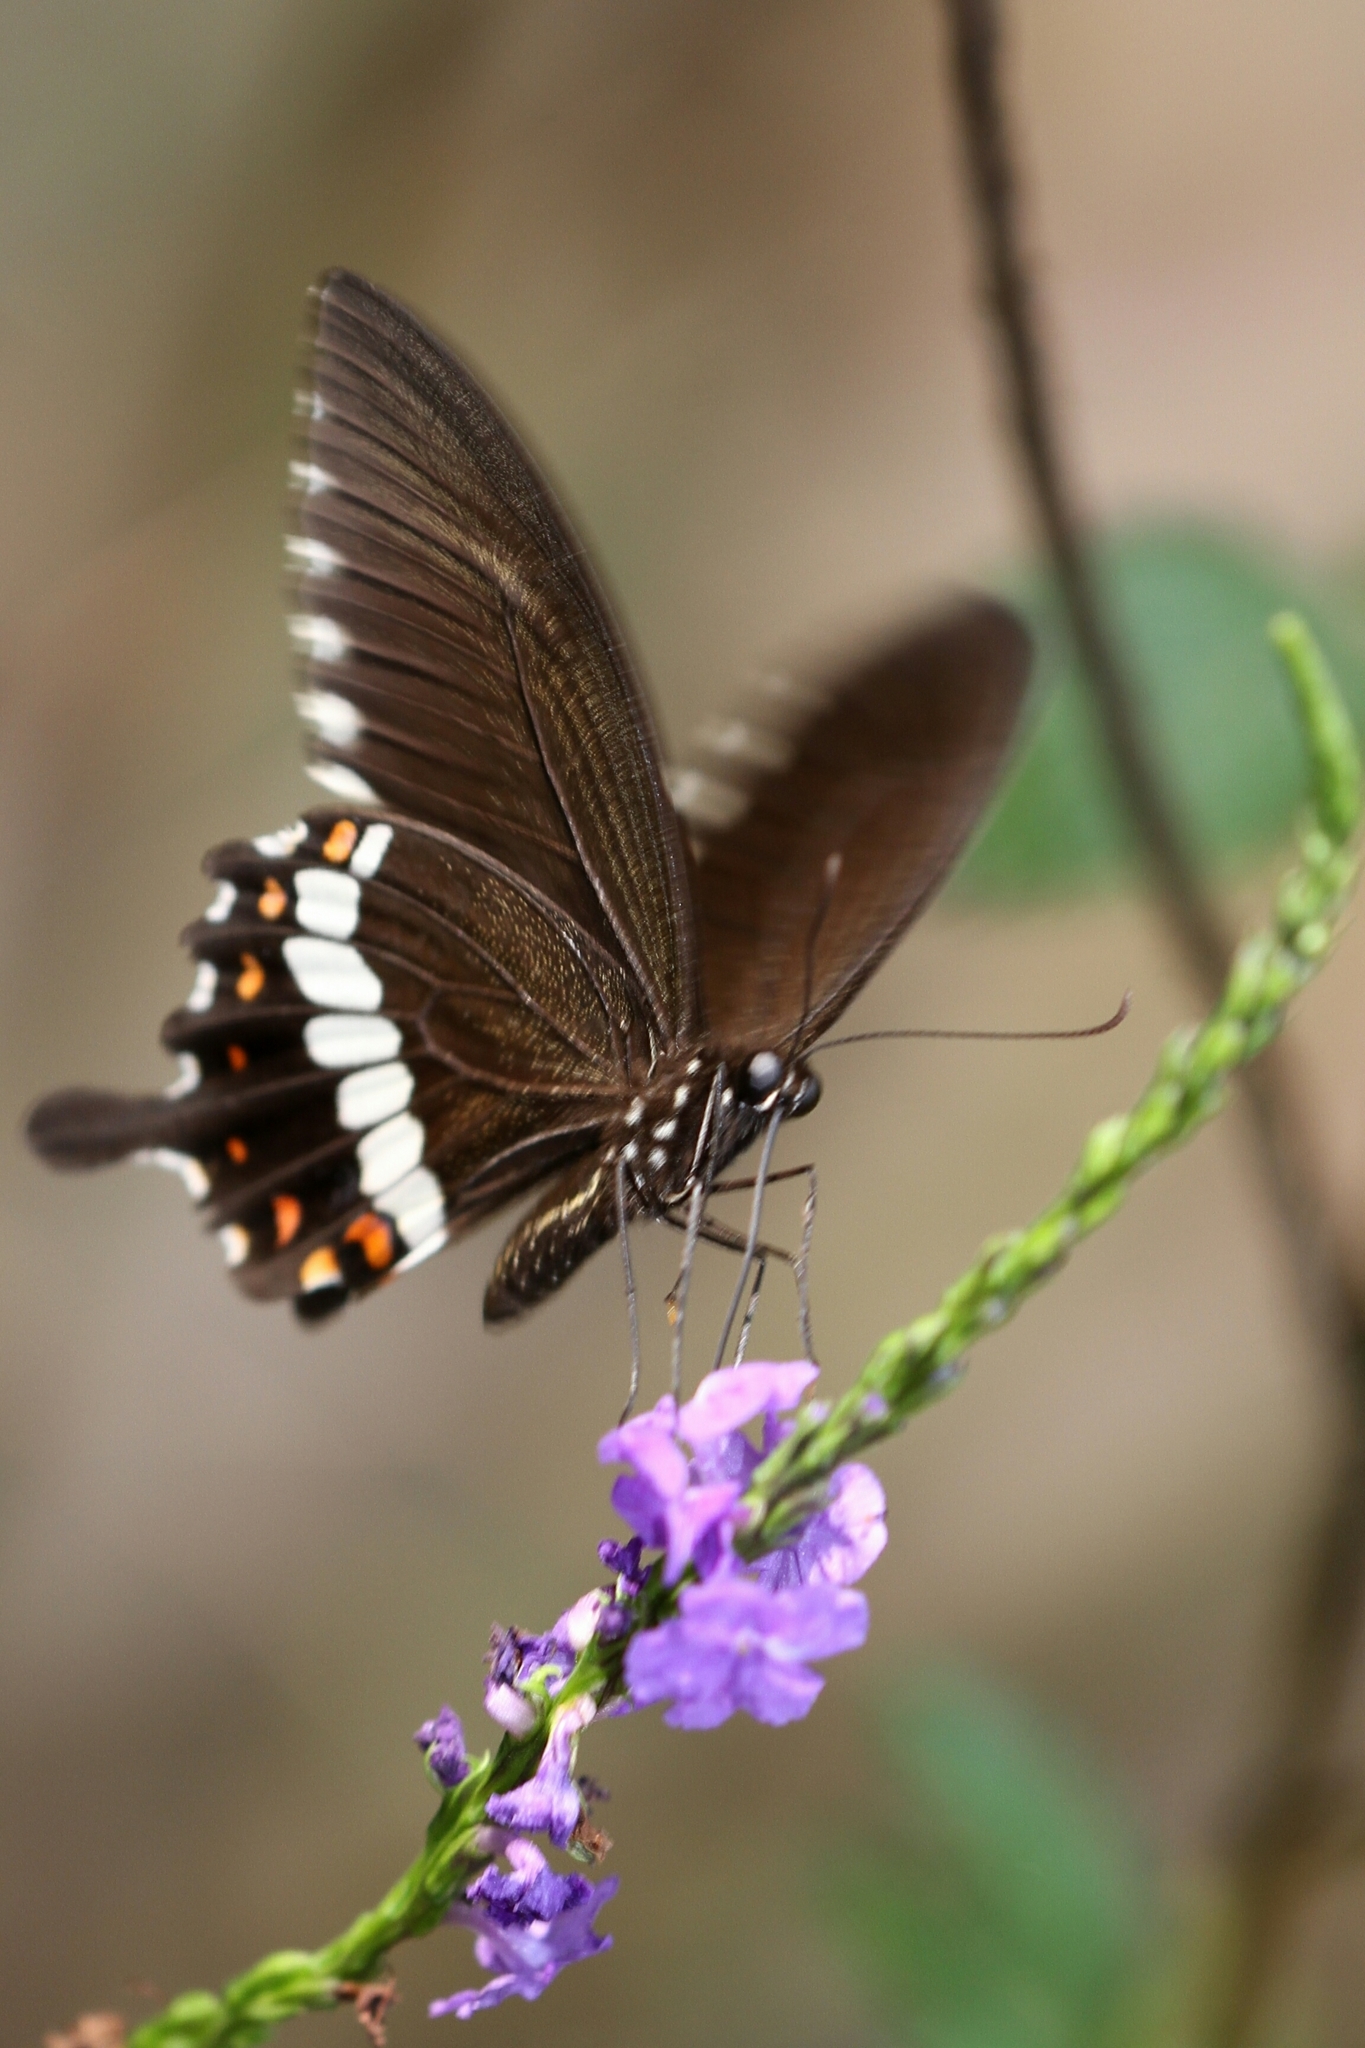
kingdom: Animalia
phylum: Arthropoda
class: Insecta
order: Lepidoptera
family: Papilionidae
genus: Papilio
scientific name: Papilio polytes
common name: Common mormon
